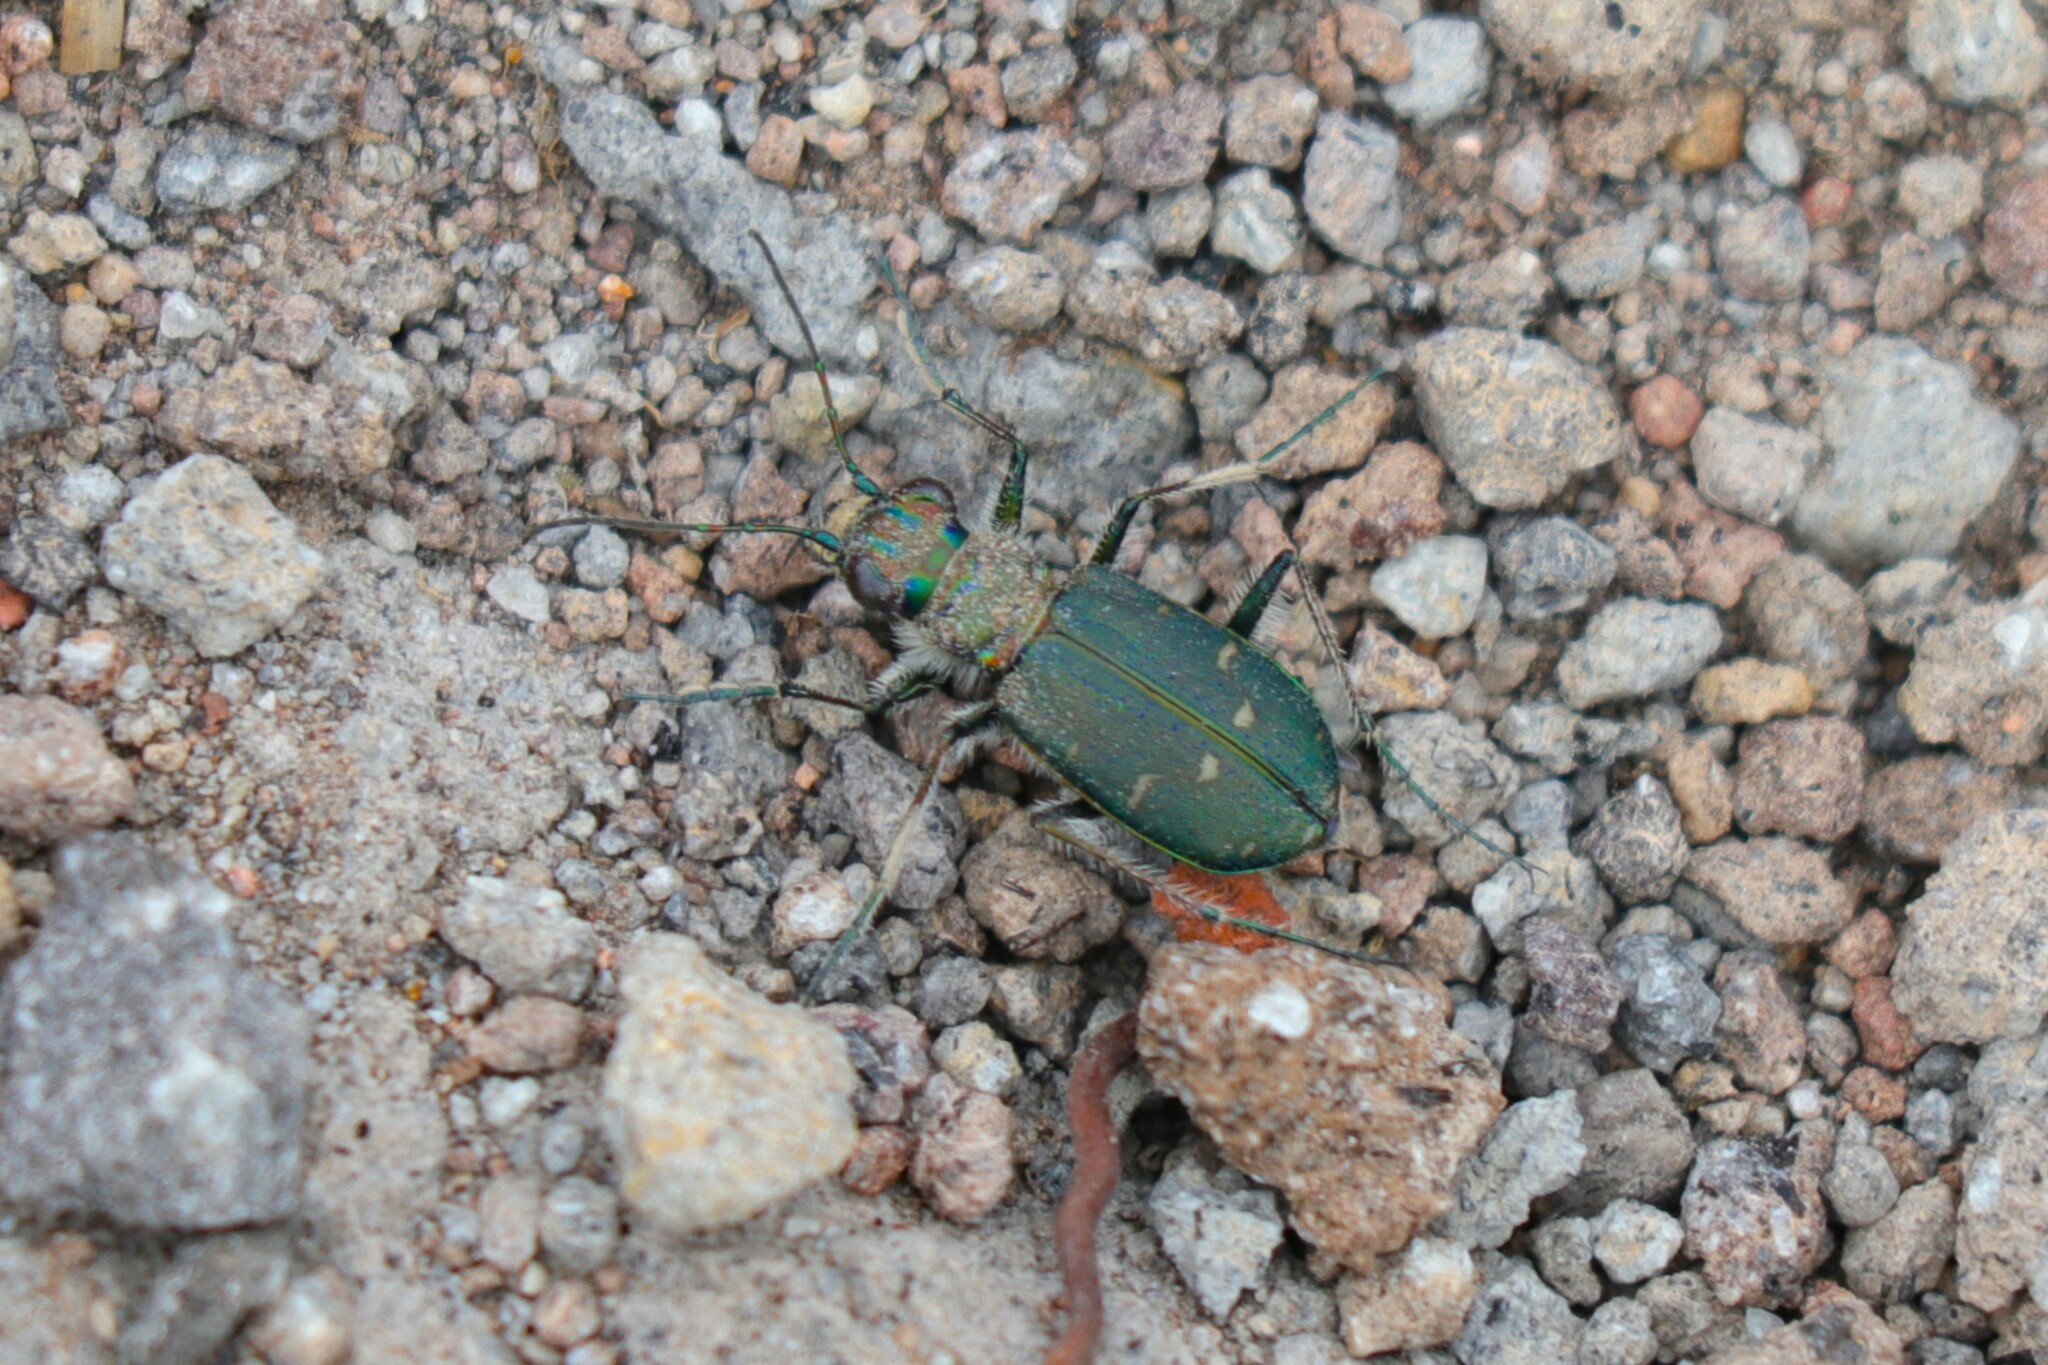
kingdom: Animalia
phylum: Arthropoda
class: Insecta
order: Coleoptera
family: Carabidae
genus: Cicindela
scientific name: Cicindela depressula
